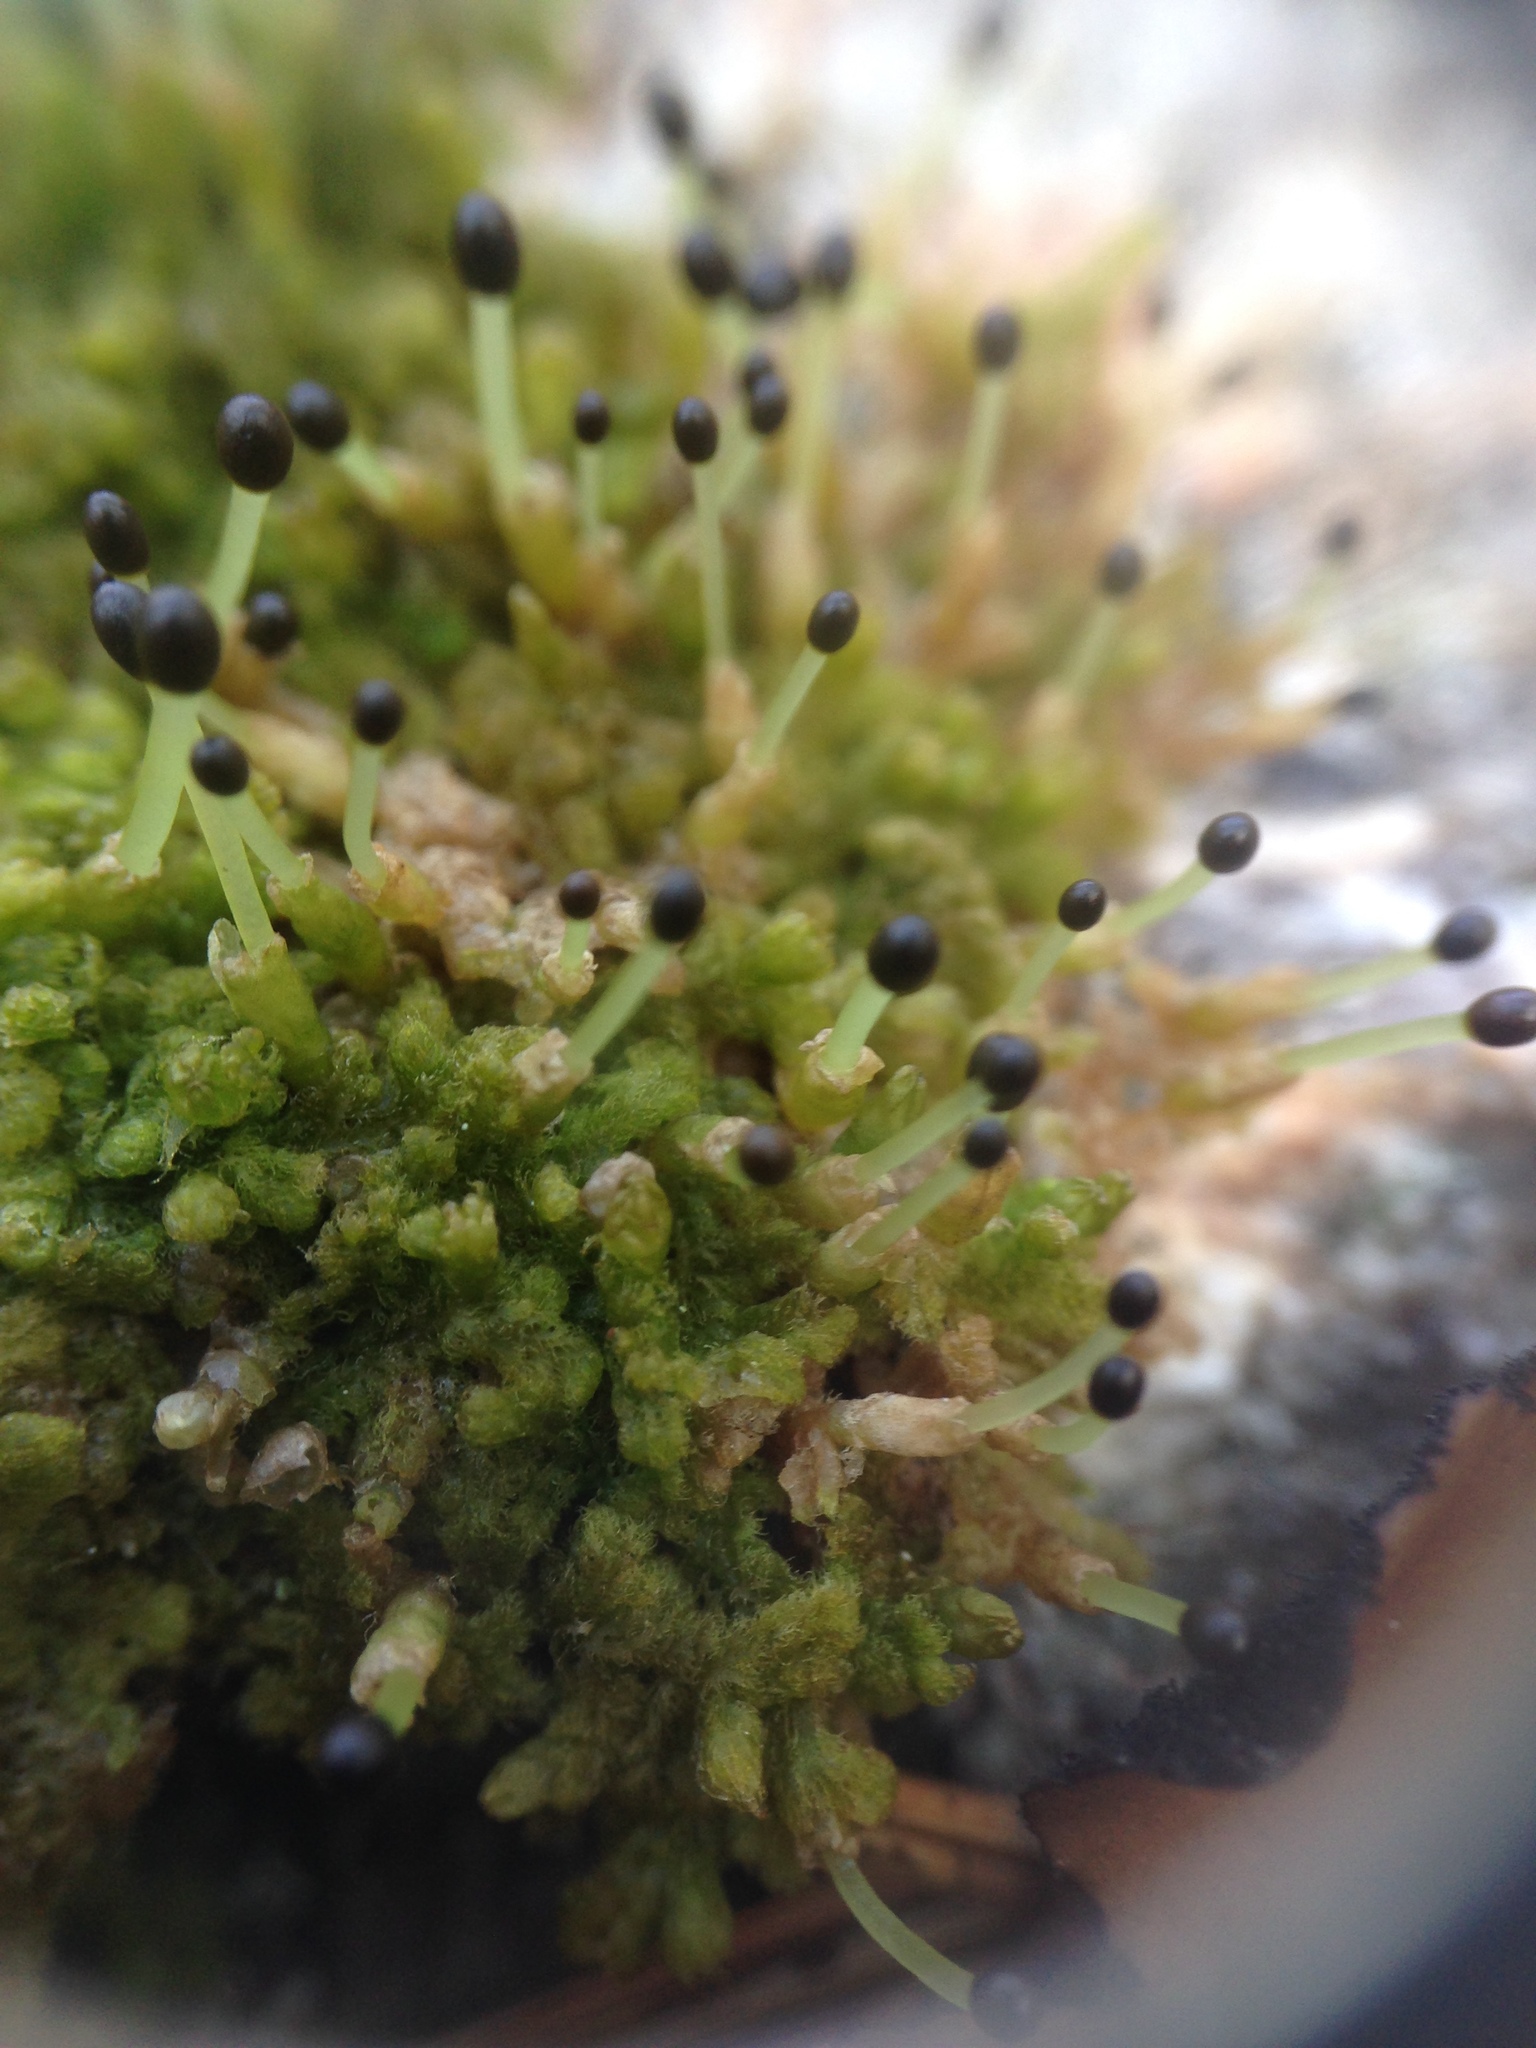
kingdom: Plantae
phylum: Marchantiophyta
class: Jungermanniopsida
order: Ptilidiales
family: Ptilidiaceae
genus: Ptilidium
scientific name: Ptilidium pulcherrimum
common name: Tree fringewort
